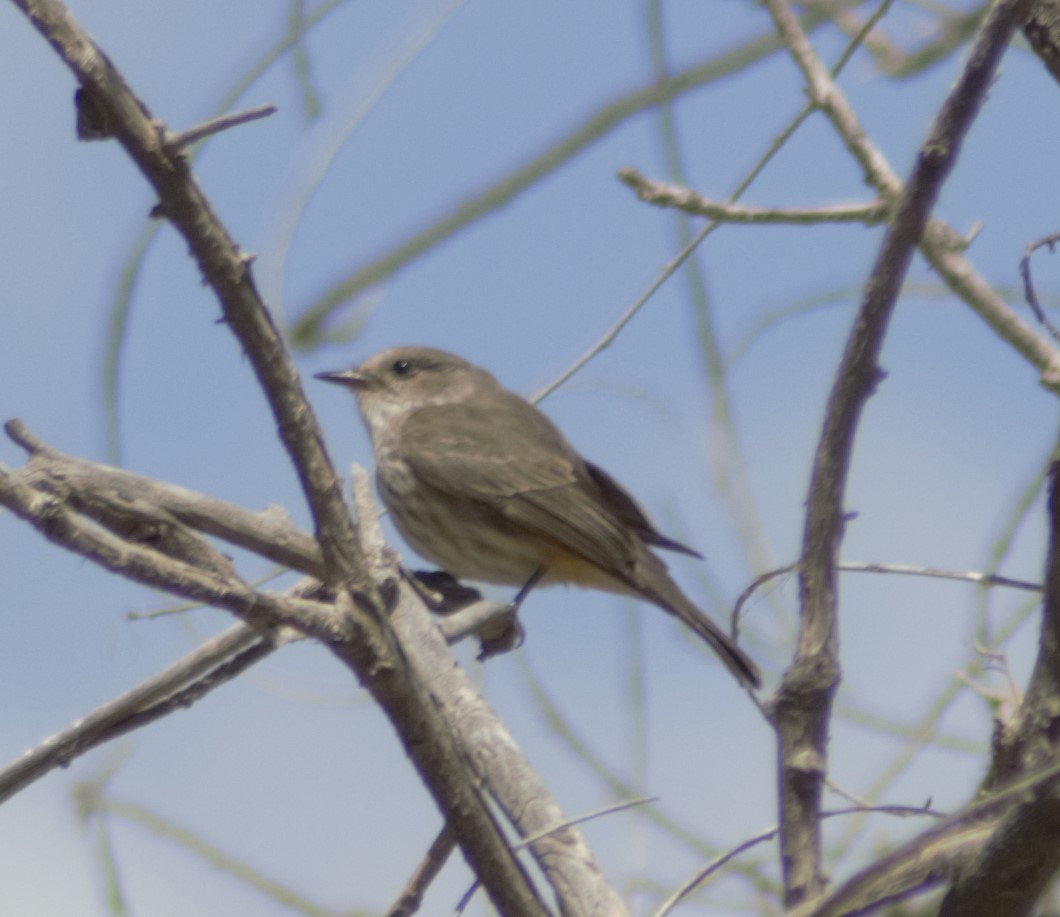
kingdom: Animalia
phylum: Chordata
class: Aves
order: Passeriformes
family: Tyrannidae
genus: Pyrocephalus
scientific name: Pyrocephalus rubinus
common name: Vermilion flycatcher
